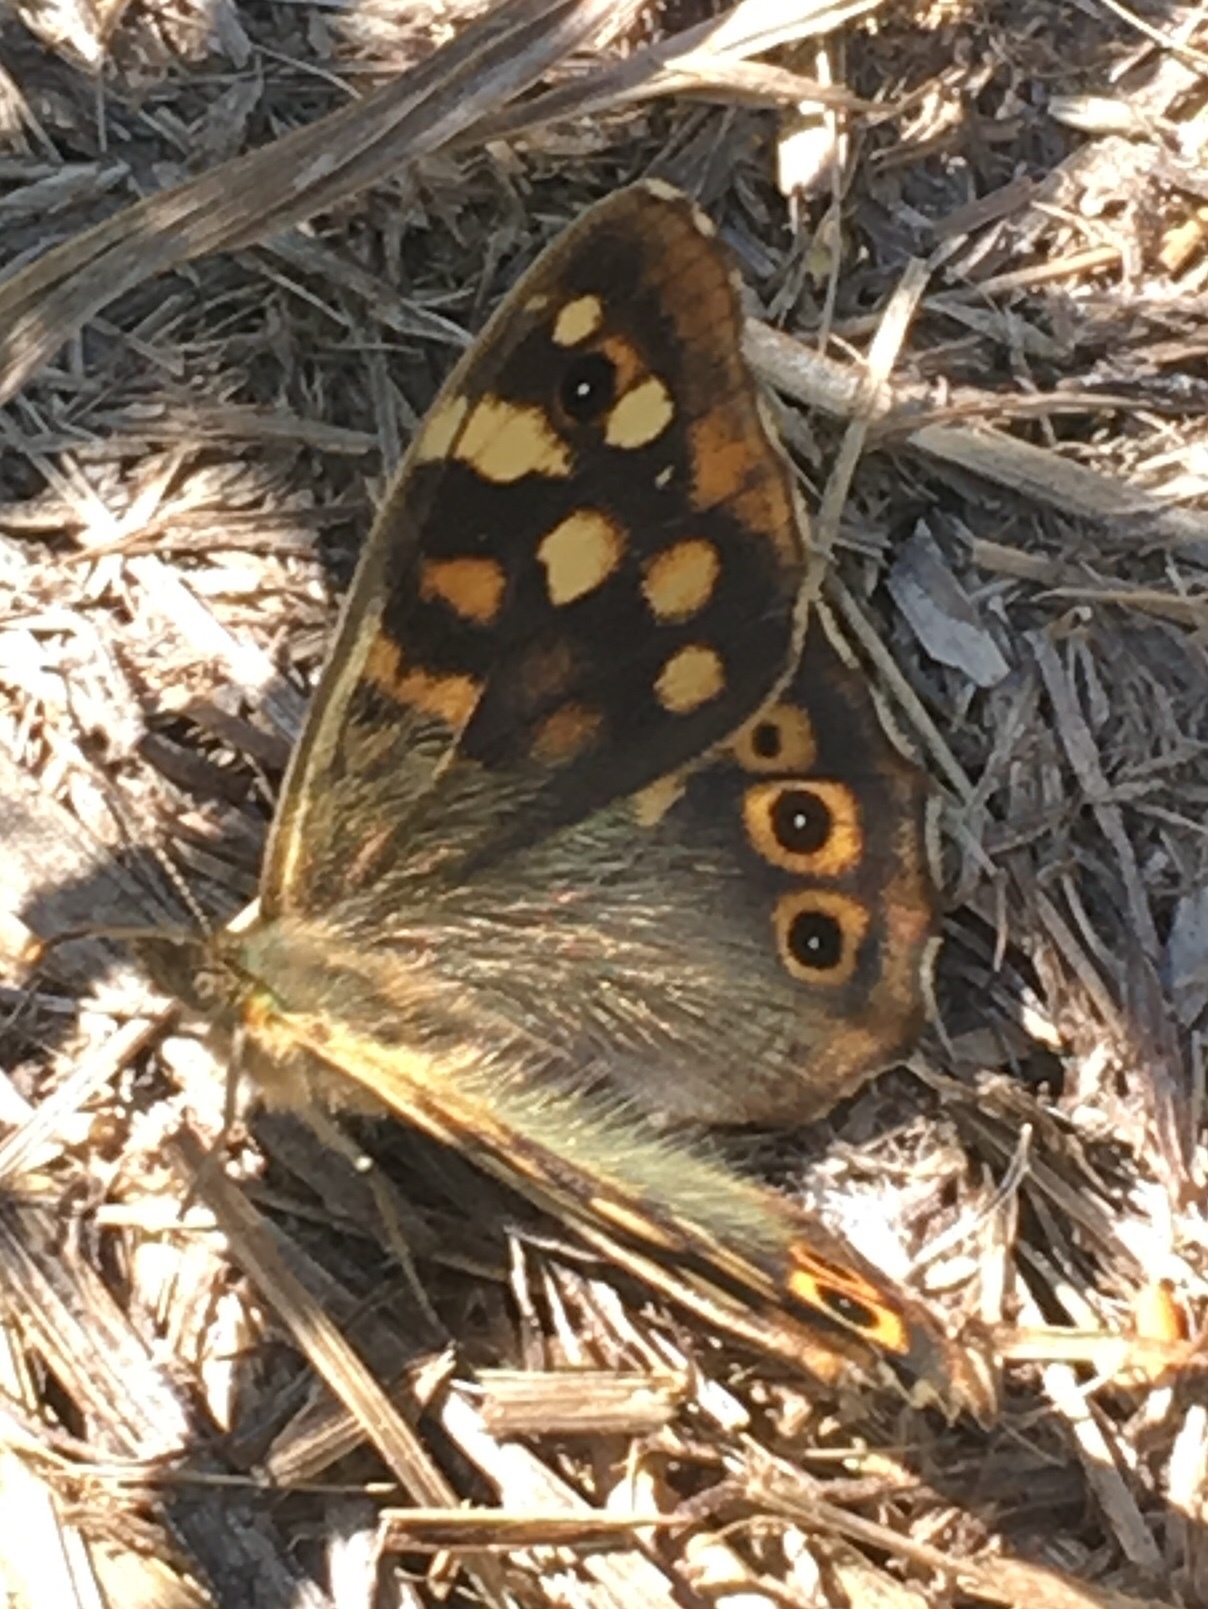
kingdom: Animalia
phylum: Arthropoda
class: Insecta
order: Lepidoptera
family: Nymphalidae
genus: Pararge
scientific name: Pararge aegeria
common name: Speckled wood
